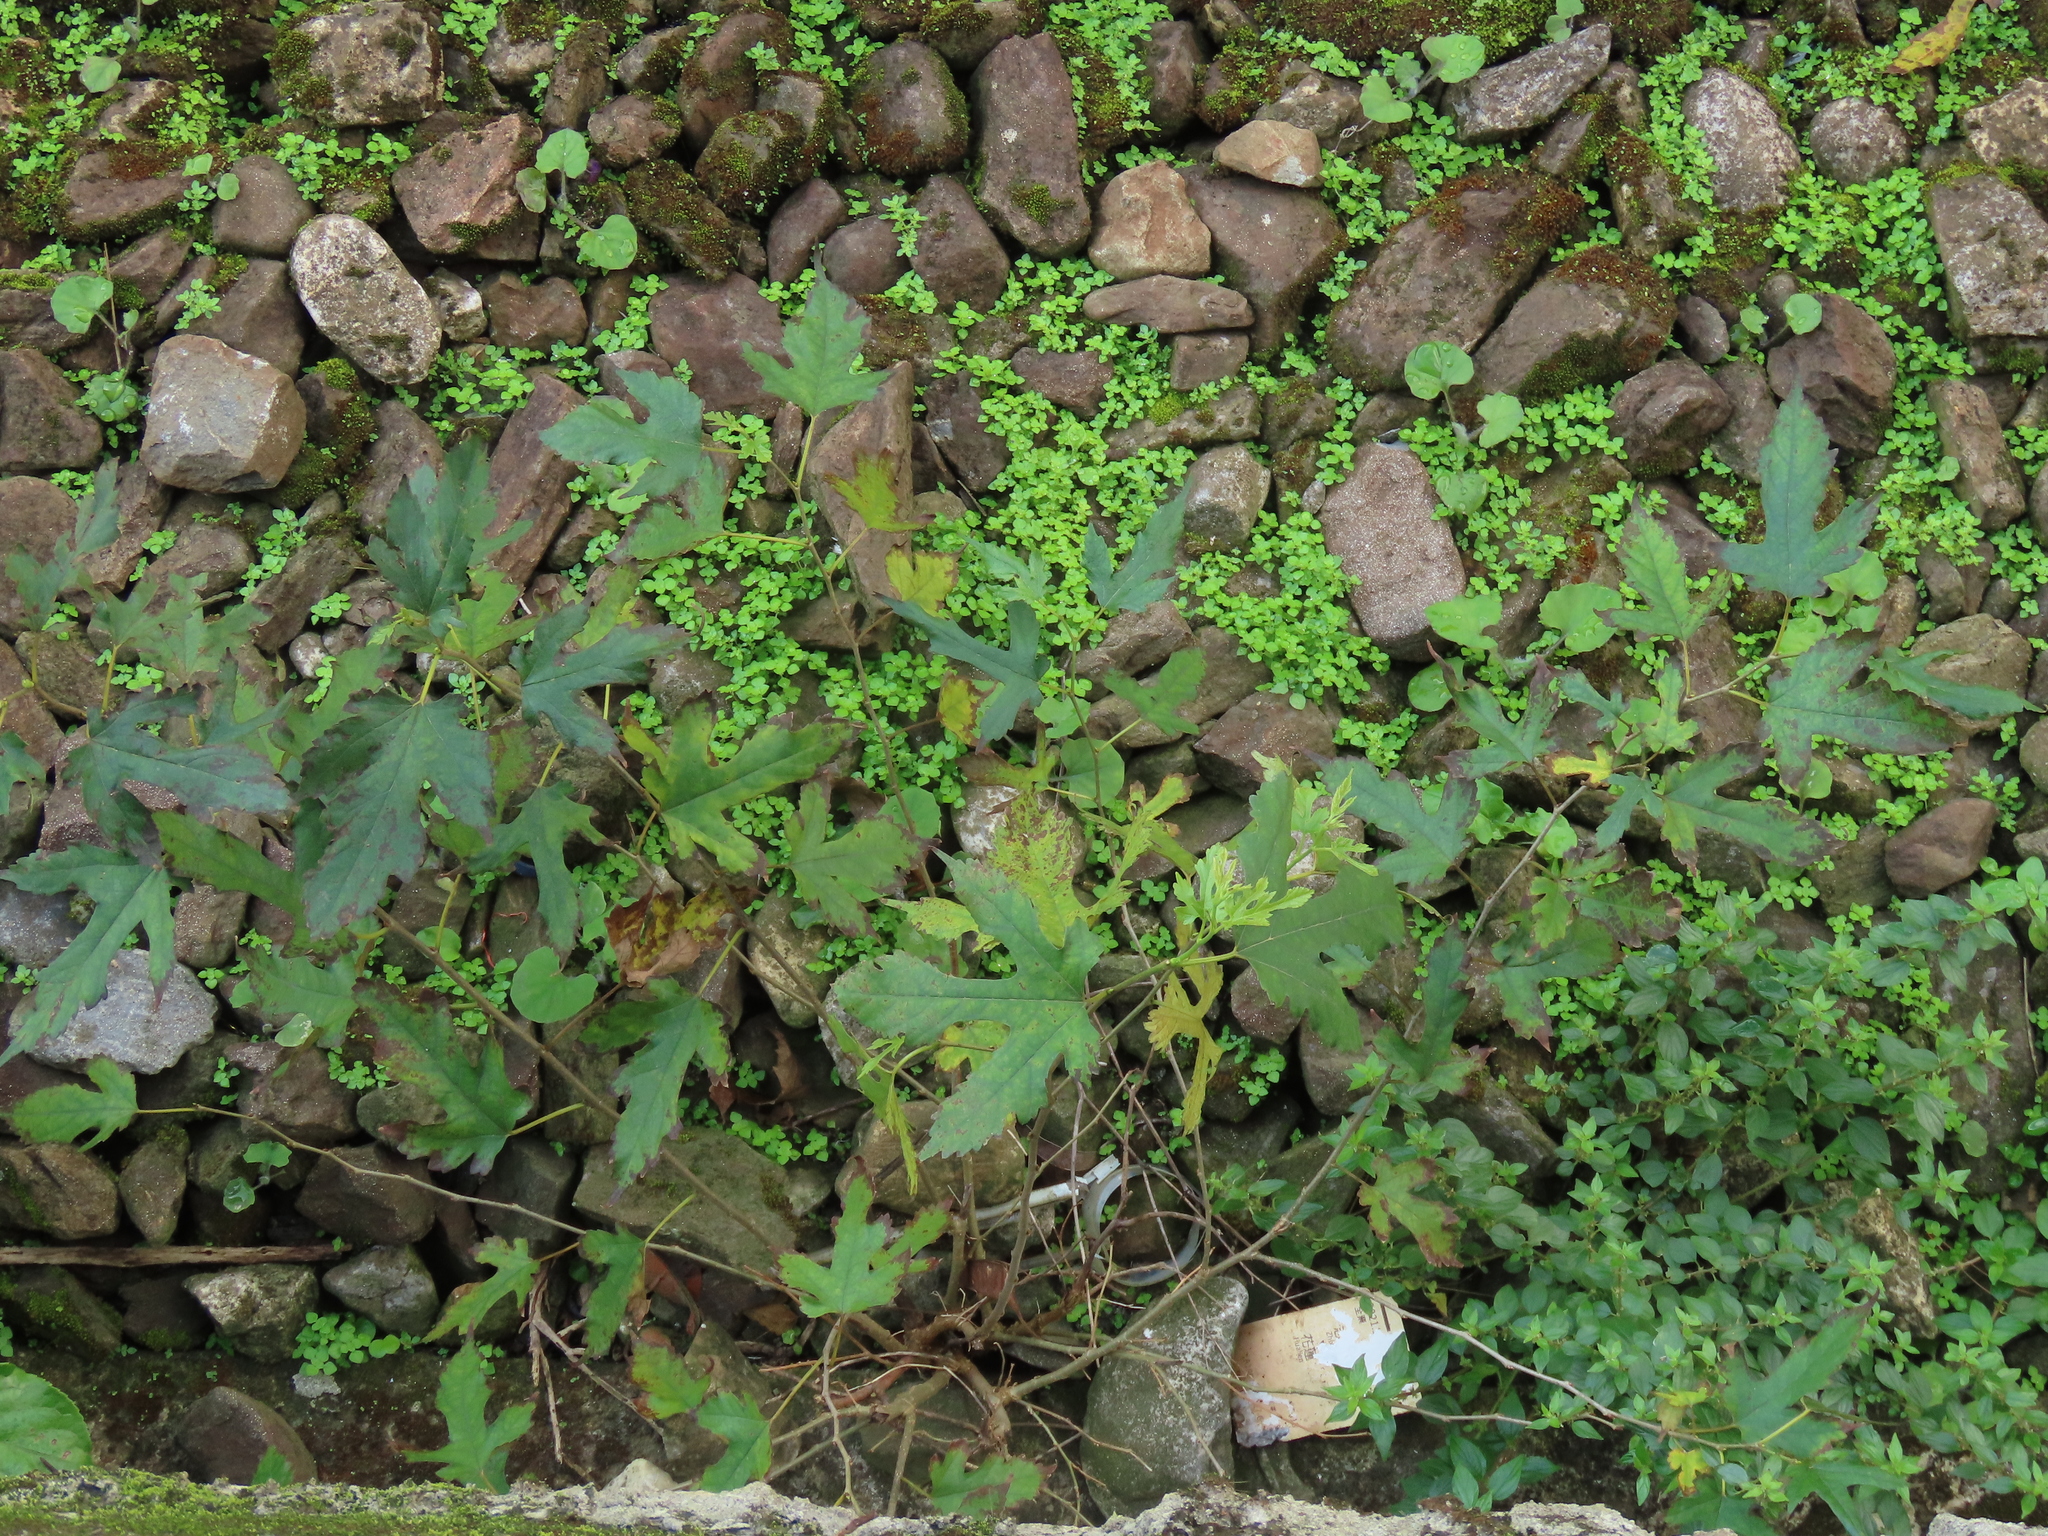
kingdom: Plantae
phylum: Tracheophyta
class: Magnoliopsida
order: Rosales
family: Moraceae
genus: Morus
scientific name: Morus indica
